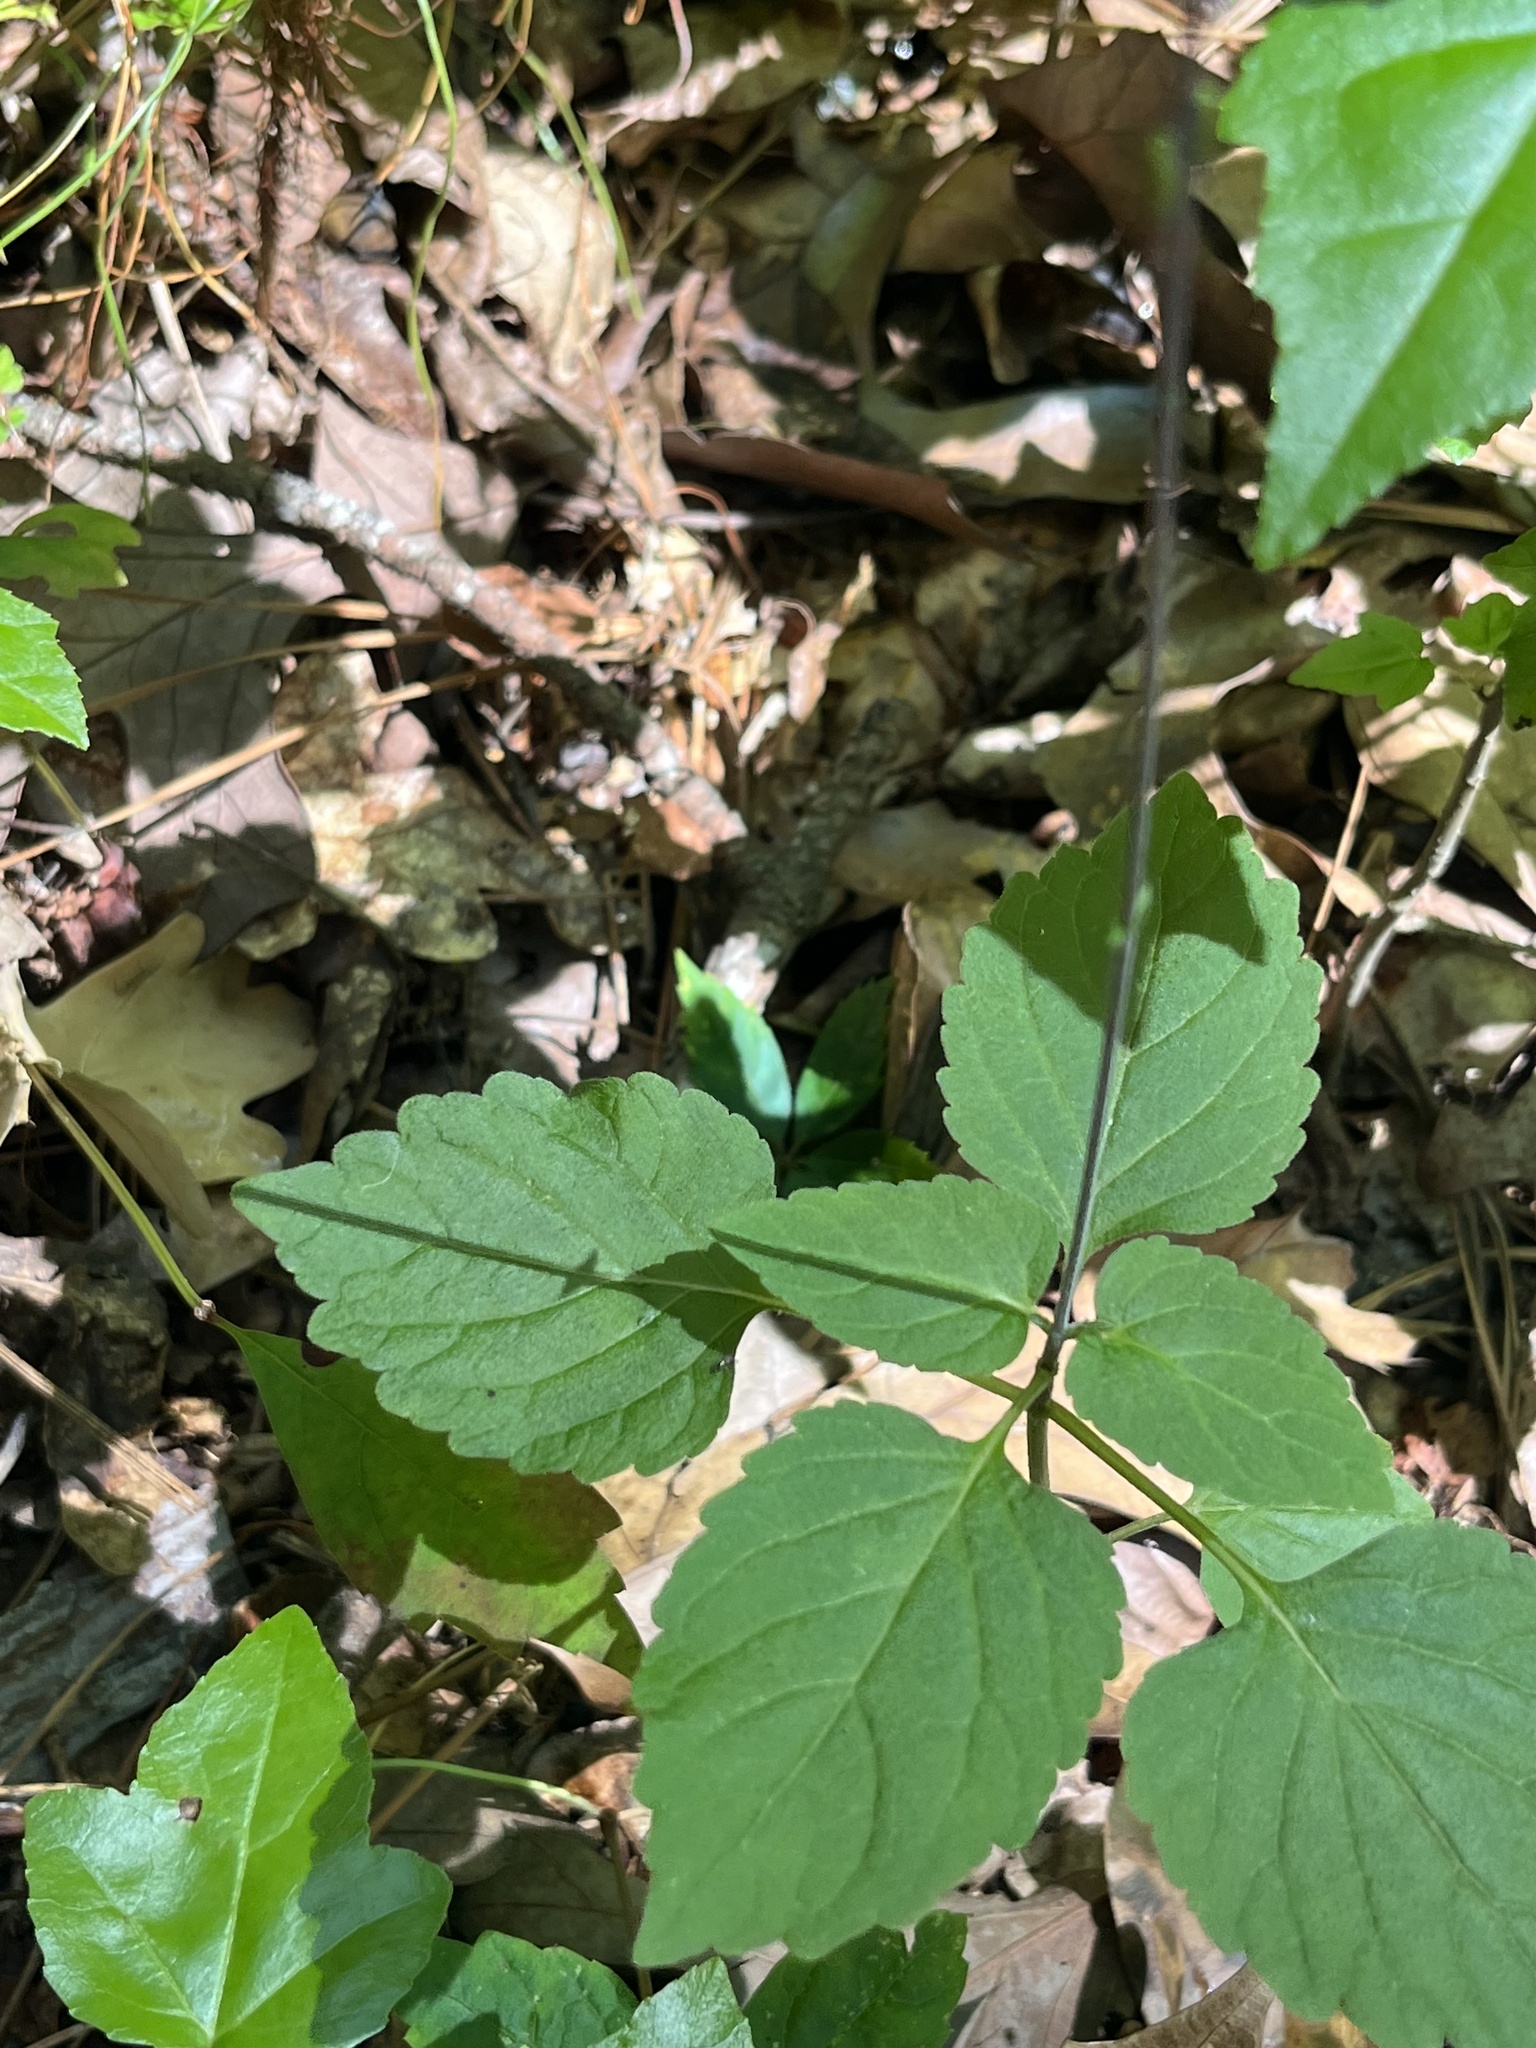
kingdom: Plantae
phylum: Tracheophyta
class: Magnoliopsida
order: Lamiales
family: Phrymaceae
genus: Phryma
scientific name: Phryma leptostachya
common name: American lopseed
